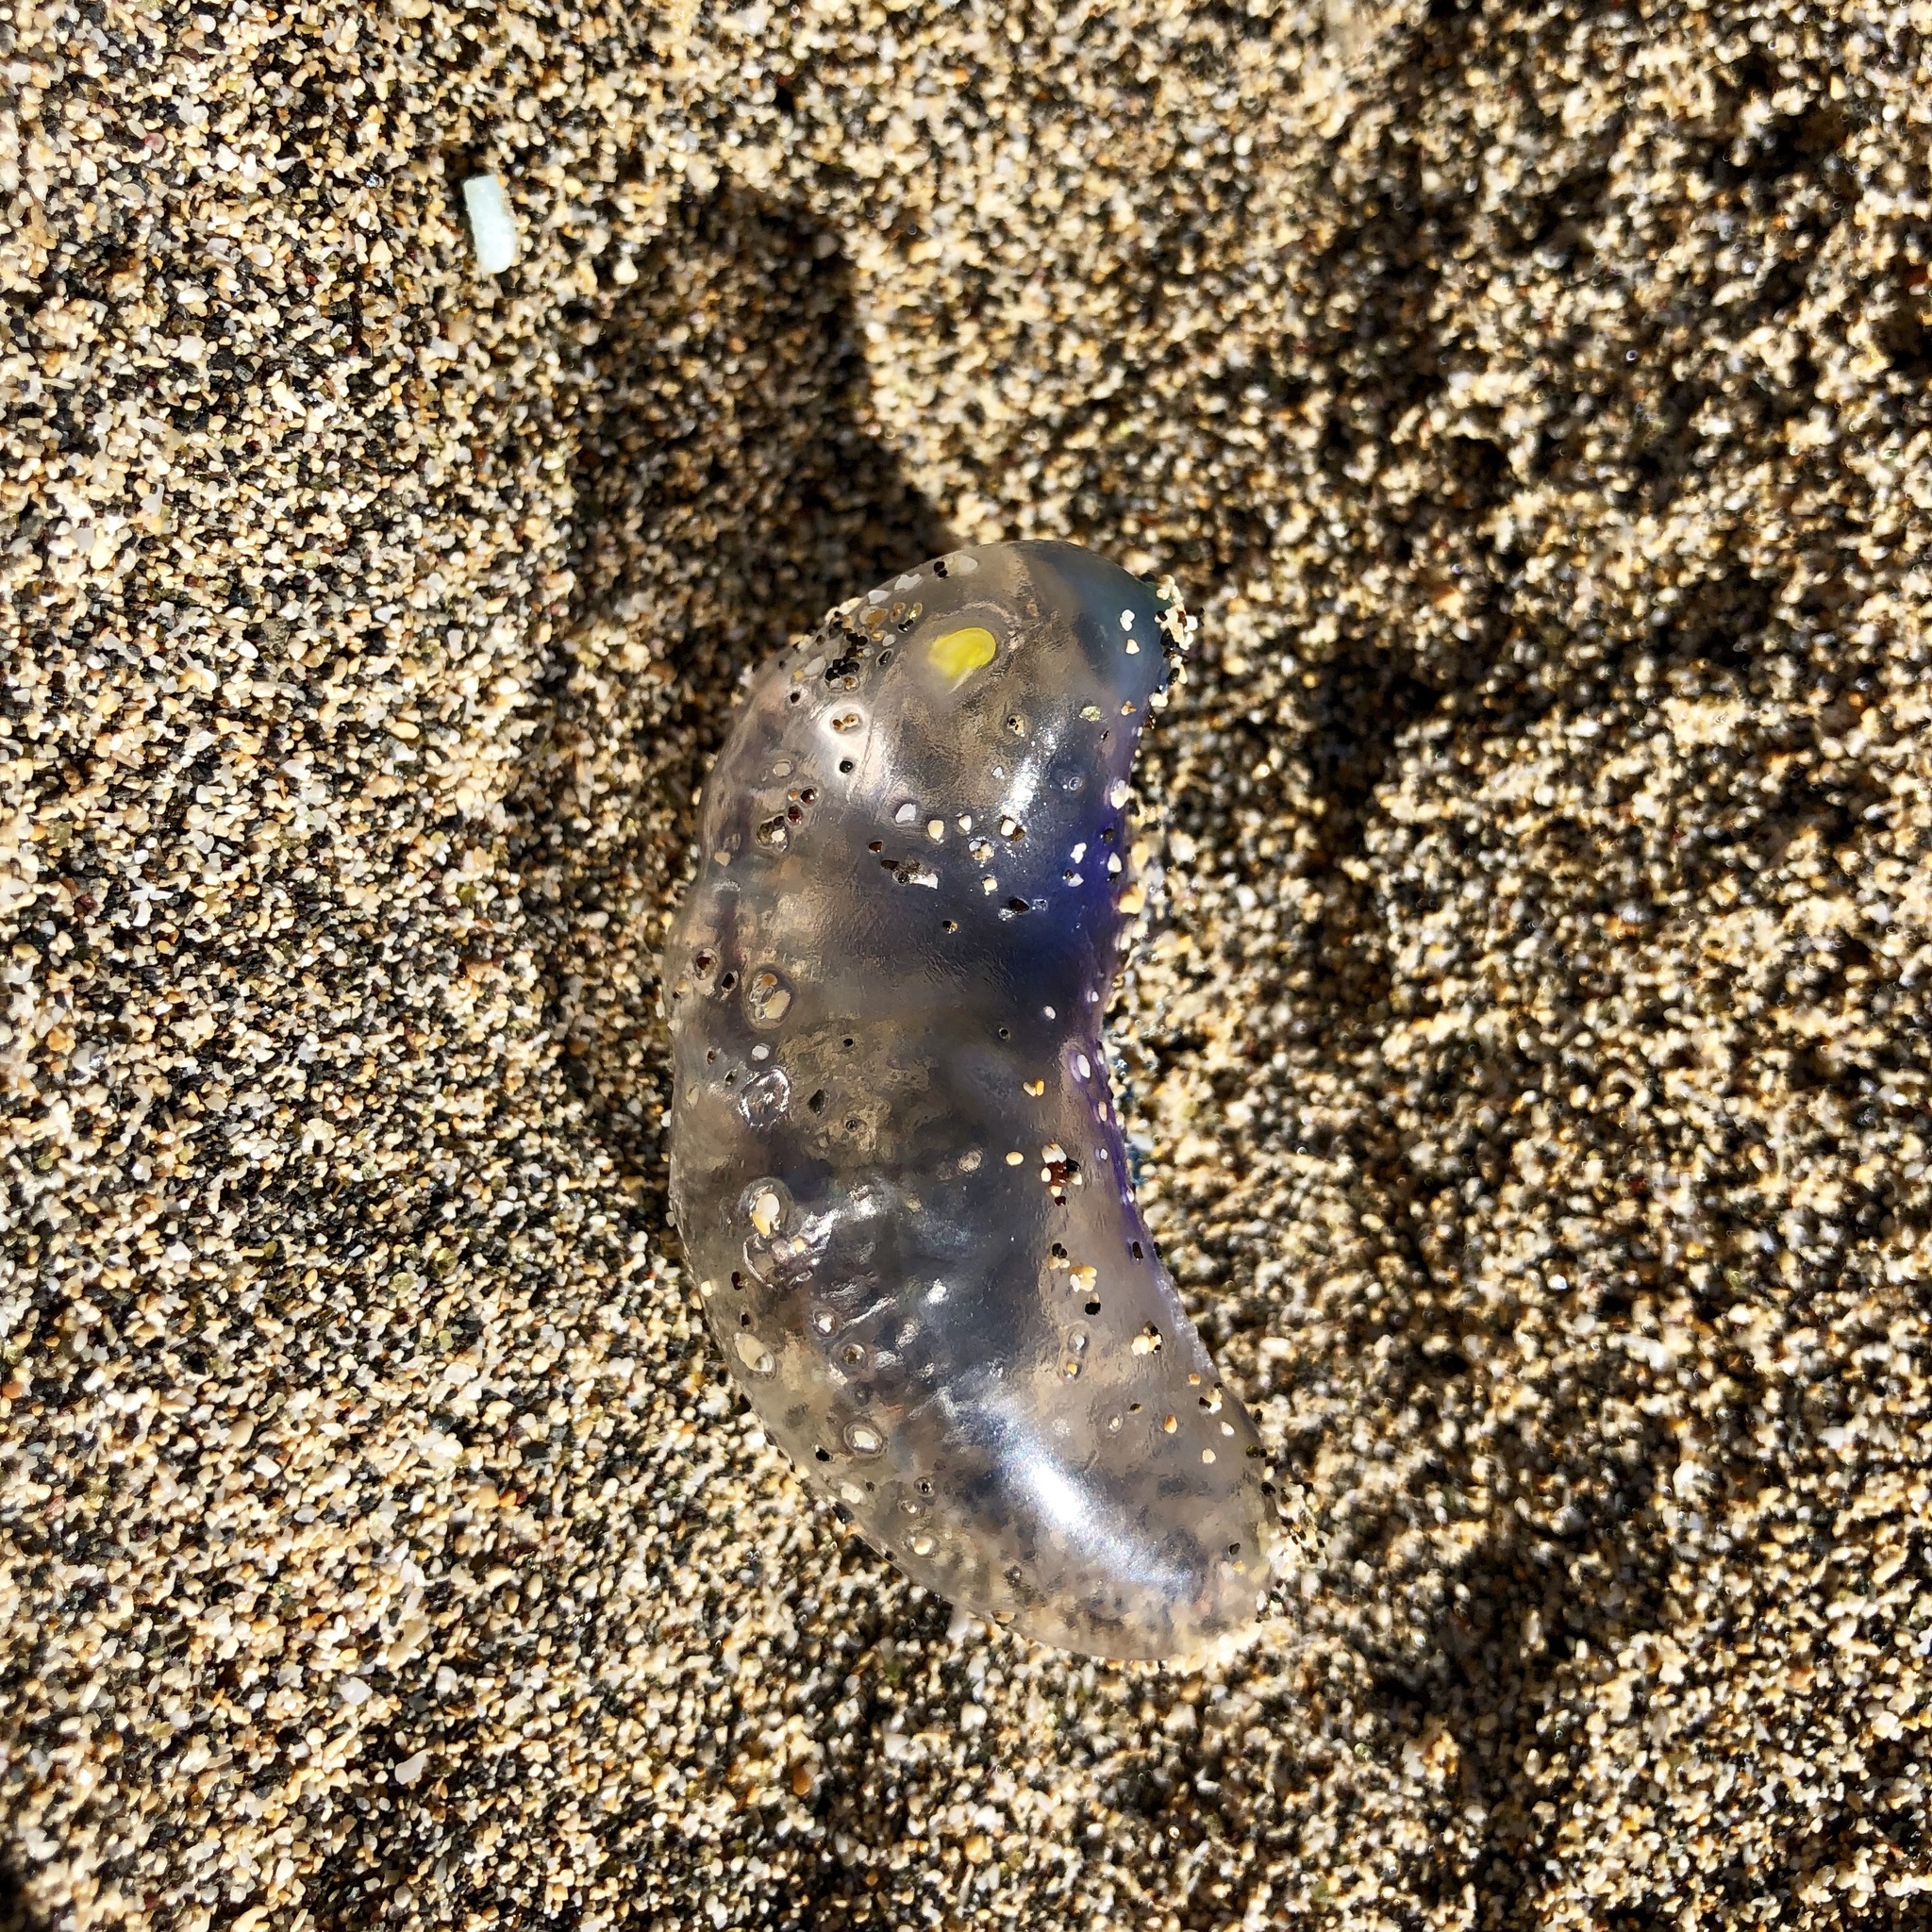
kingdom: Animalia
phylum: Cnidaria
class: Hydrozoa
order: Siphonophorae
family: Physaliidae
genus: Physalia
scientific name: Physalia physalis
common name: Portuguese man-of-war
